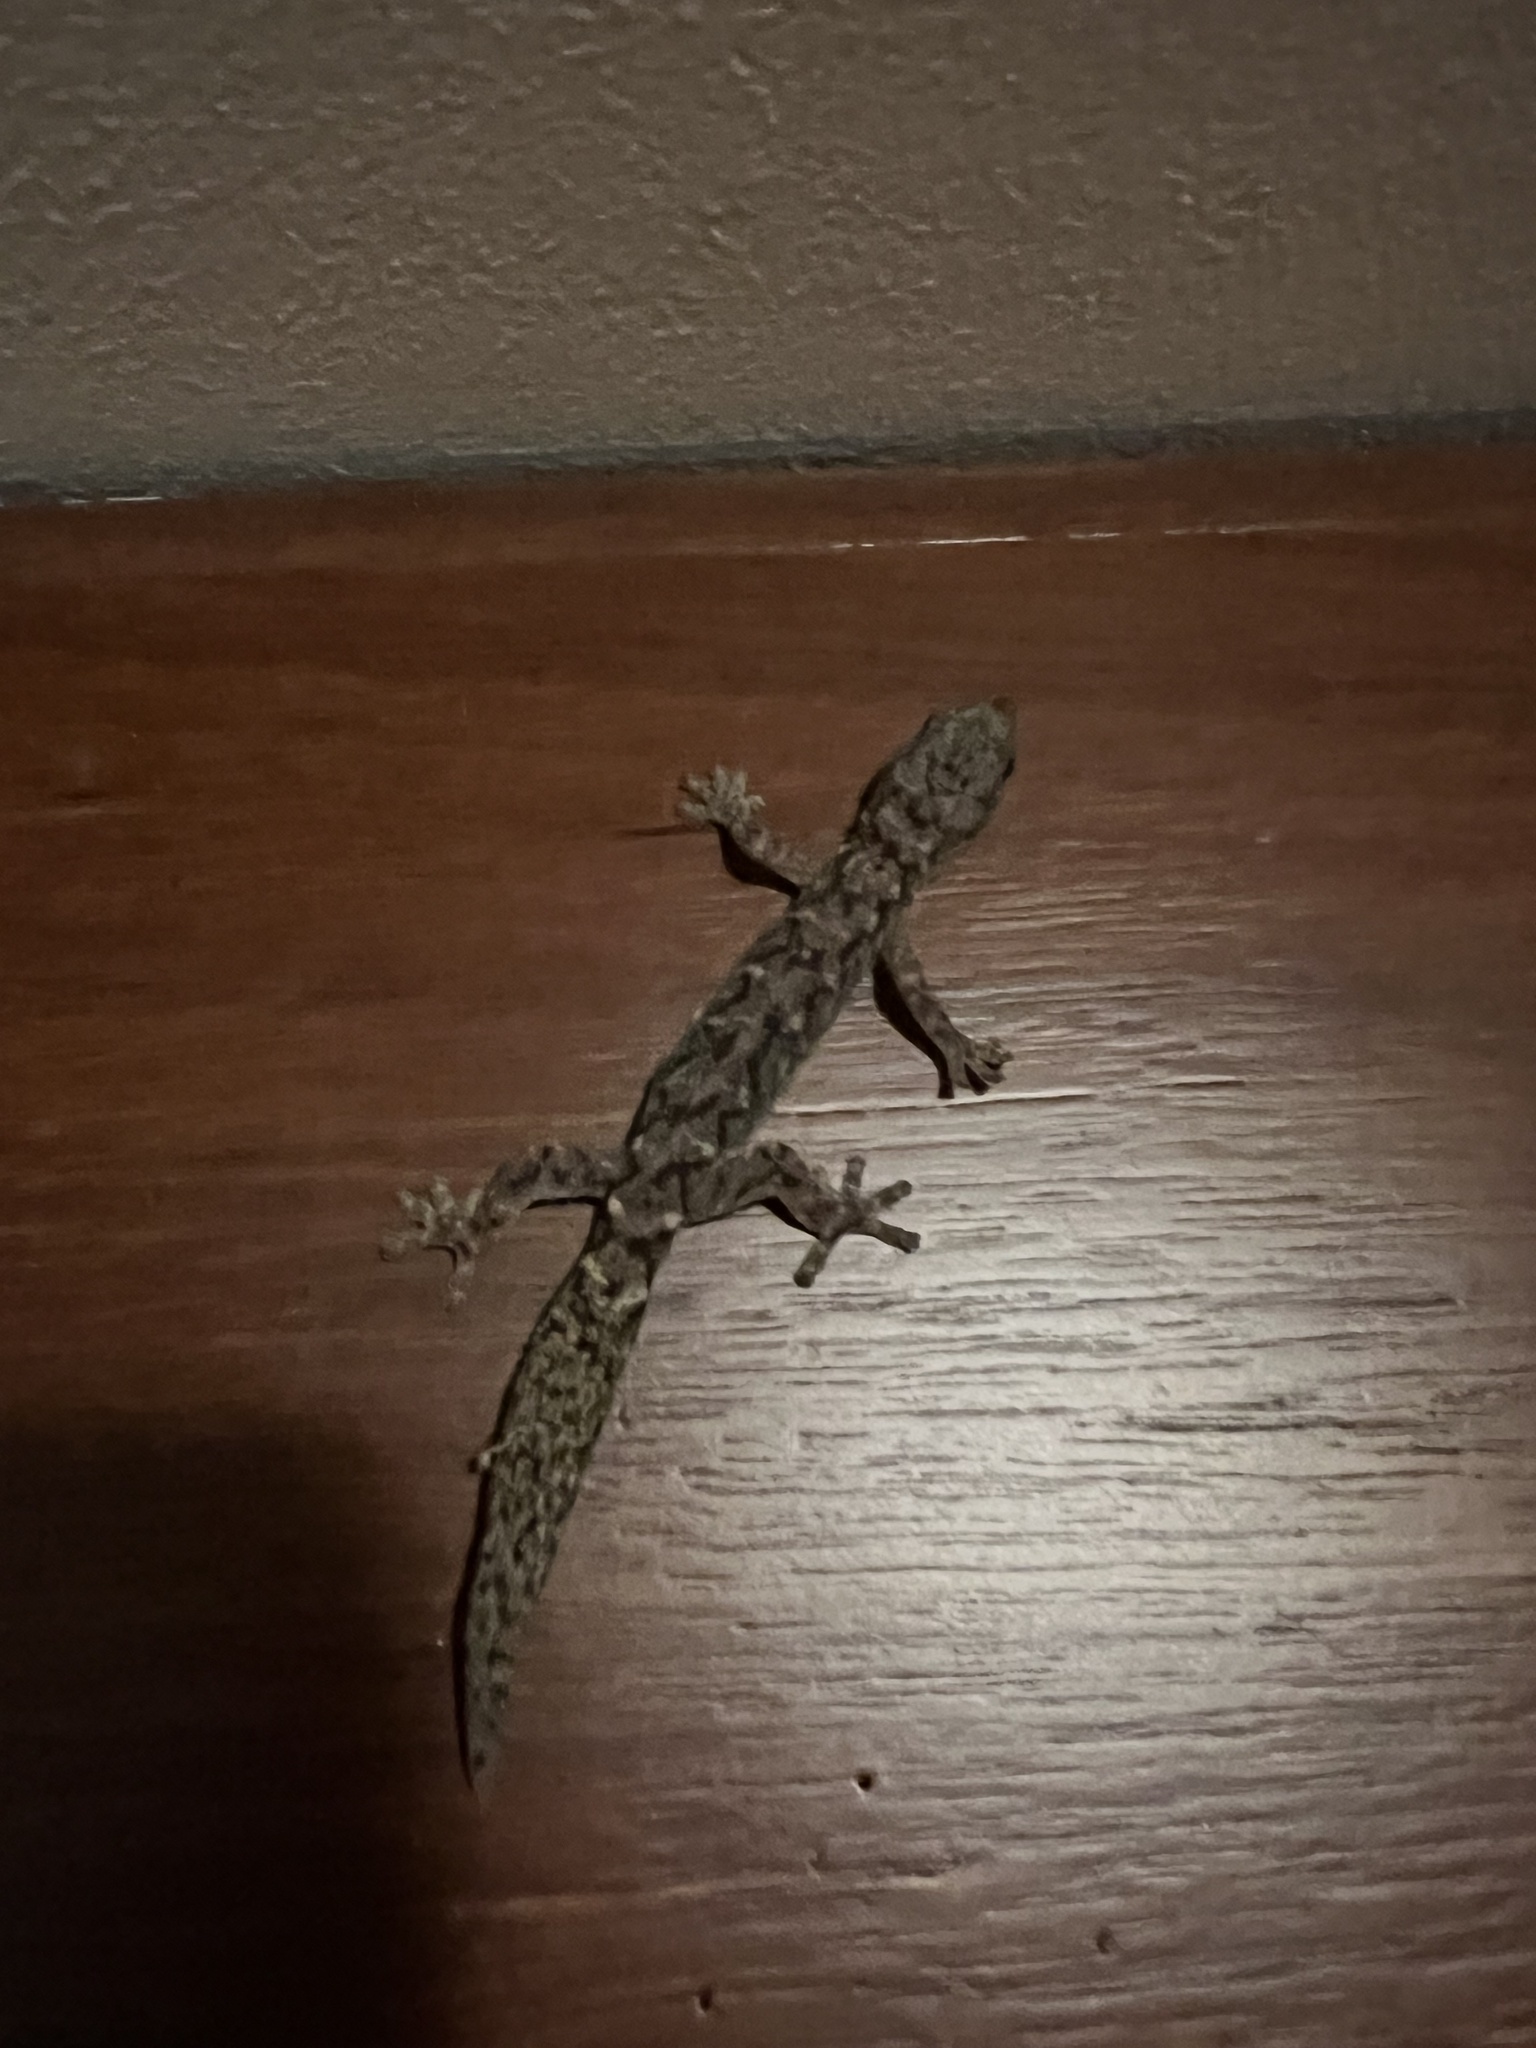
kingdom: Animalia
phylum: Chordata
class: Squamata
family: Diplodactylidae
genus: Amalosia
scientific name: Amalosia lesueurii
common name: Lesueur's gecko
